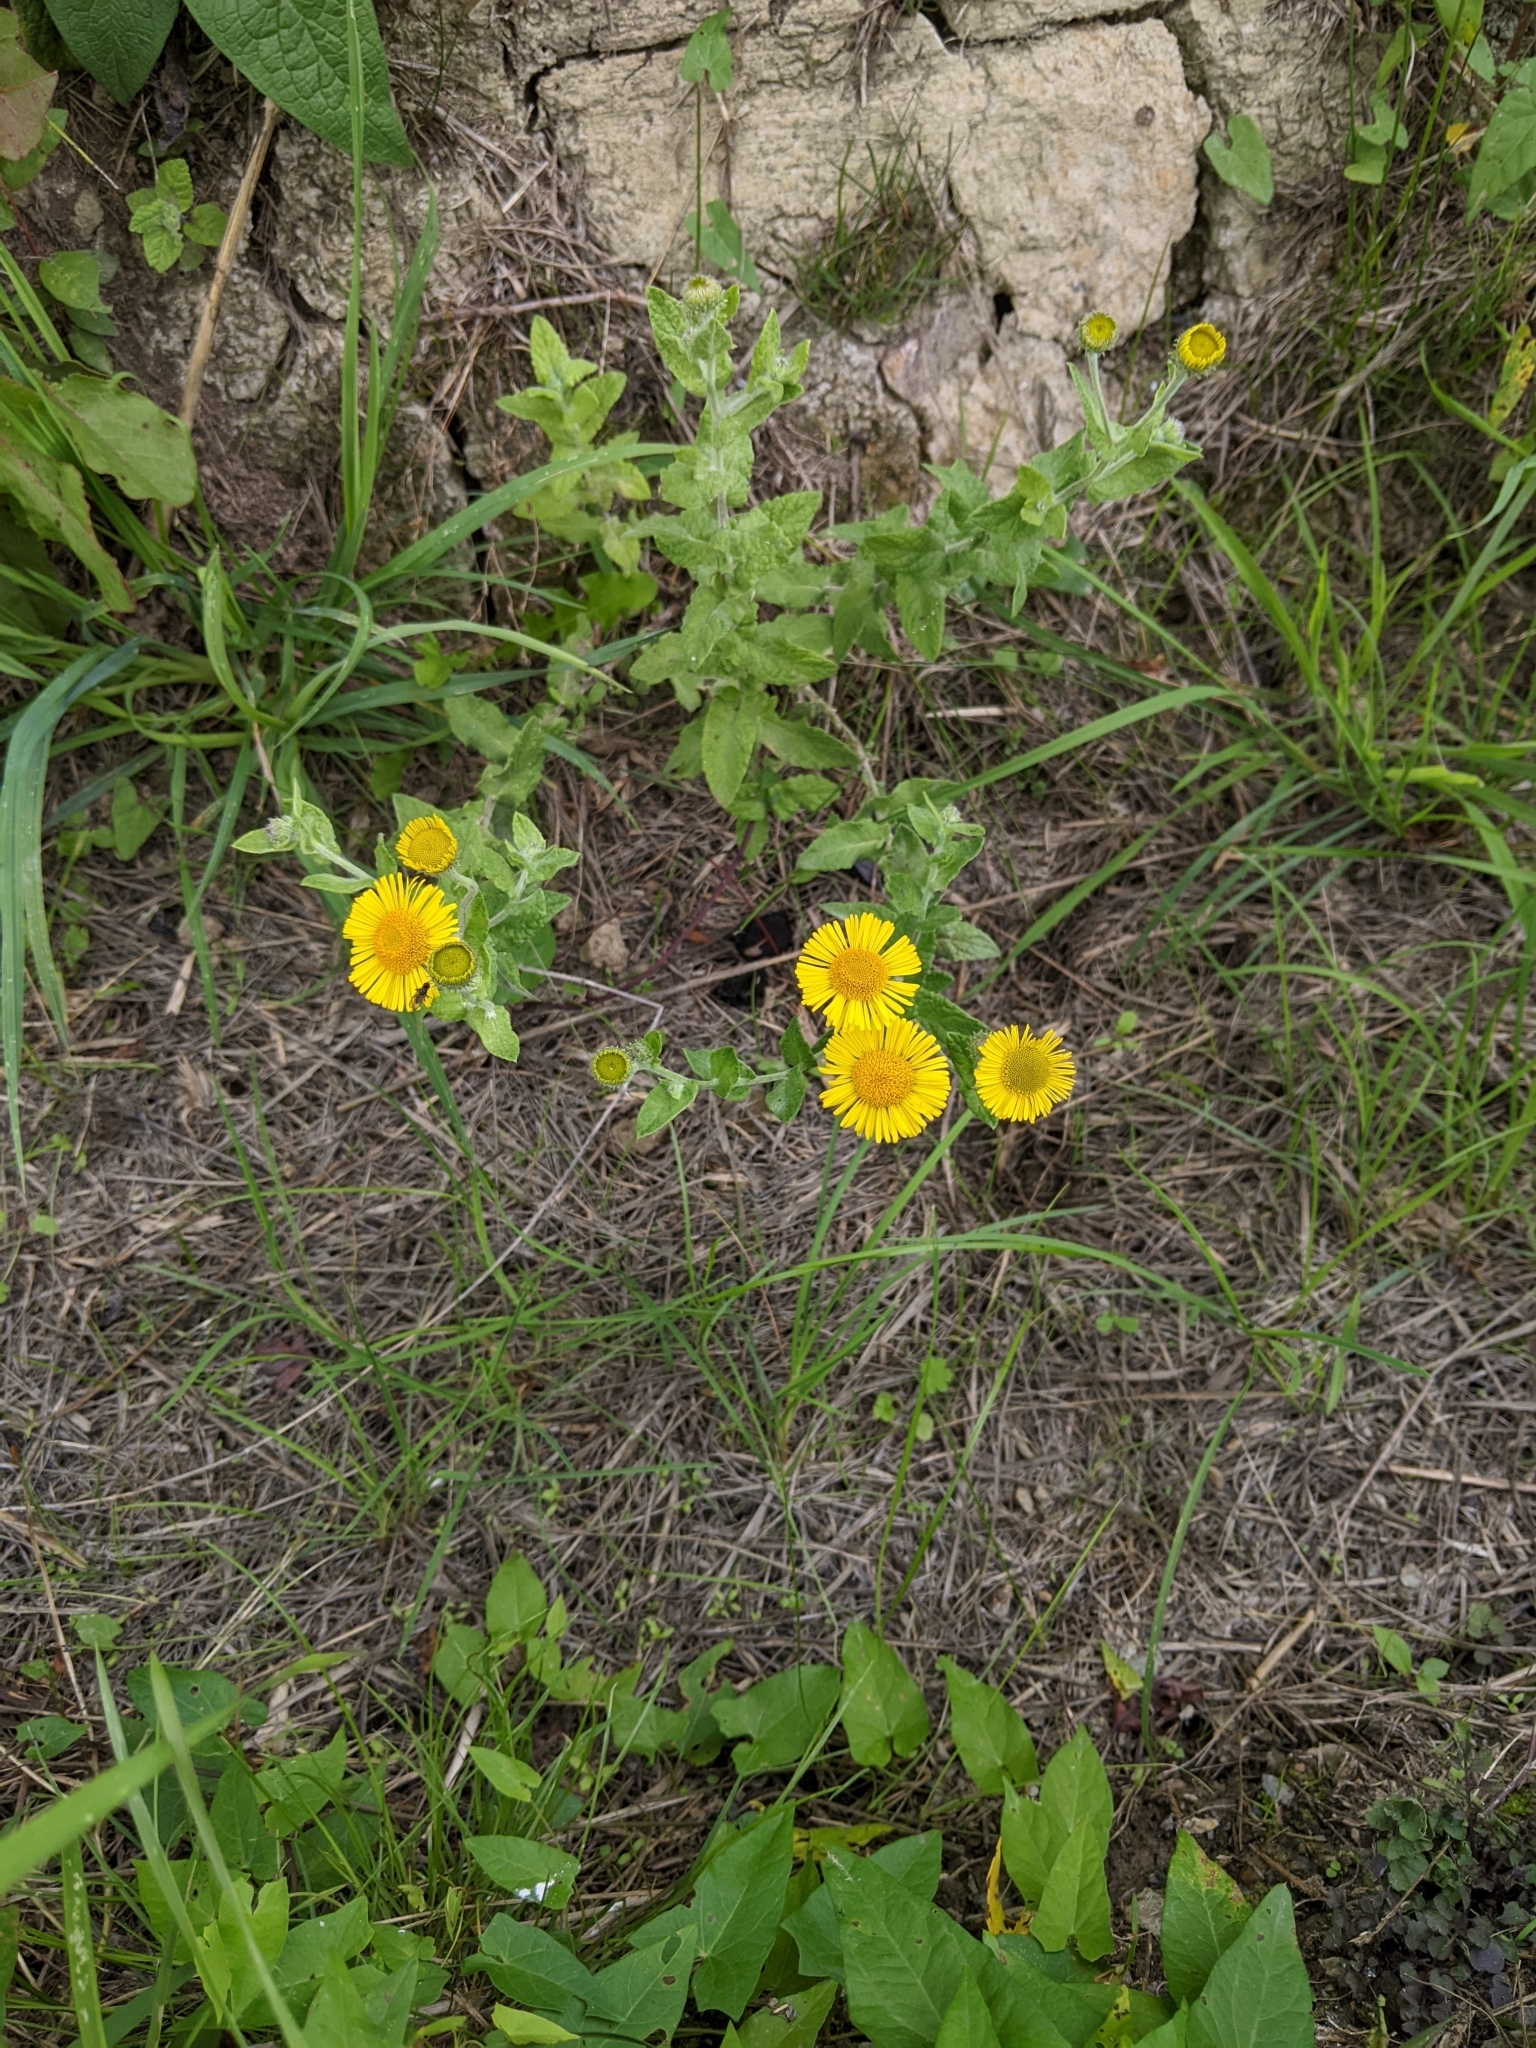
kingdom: Plantae
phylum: Tracheophyta
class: Magnoliopsida
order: Asterales
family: Asteraceae
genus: Pulicaria
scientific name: Pulicaria dysenterica
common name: Common fleabane
